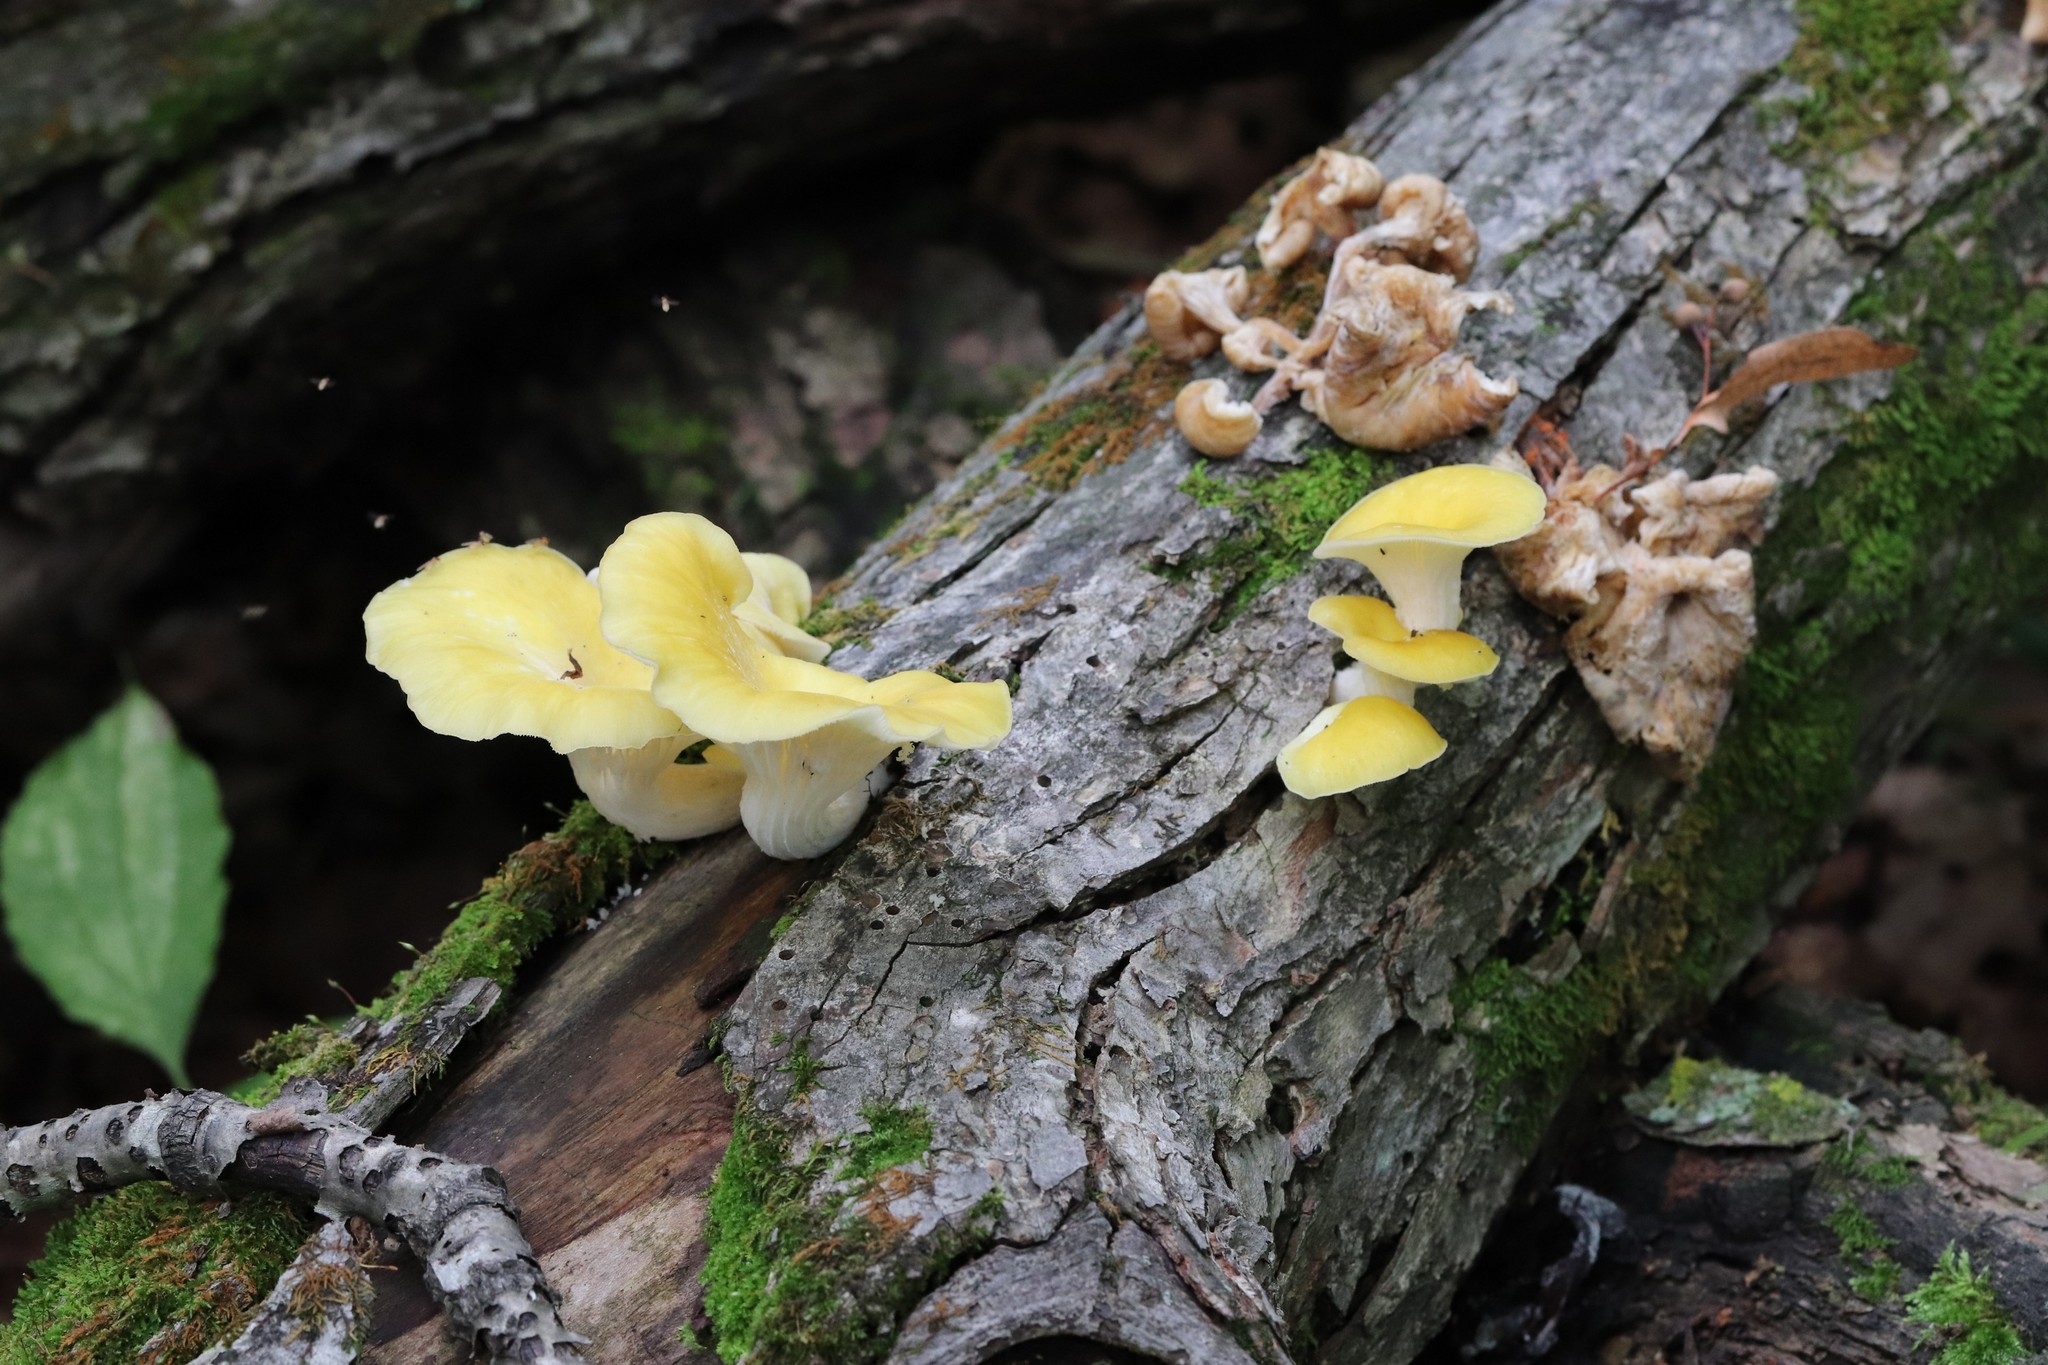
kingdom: Fungi
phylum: Basidiomycota
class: Agaricomycetes
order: Agaricales
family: Pleurotaceae
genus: Pleurotus
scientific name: Pleurotus citrinopileatus
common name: Golden oyster mushroom
